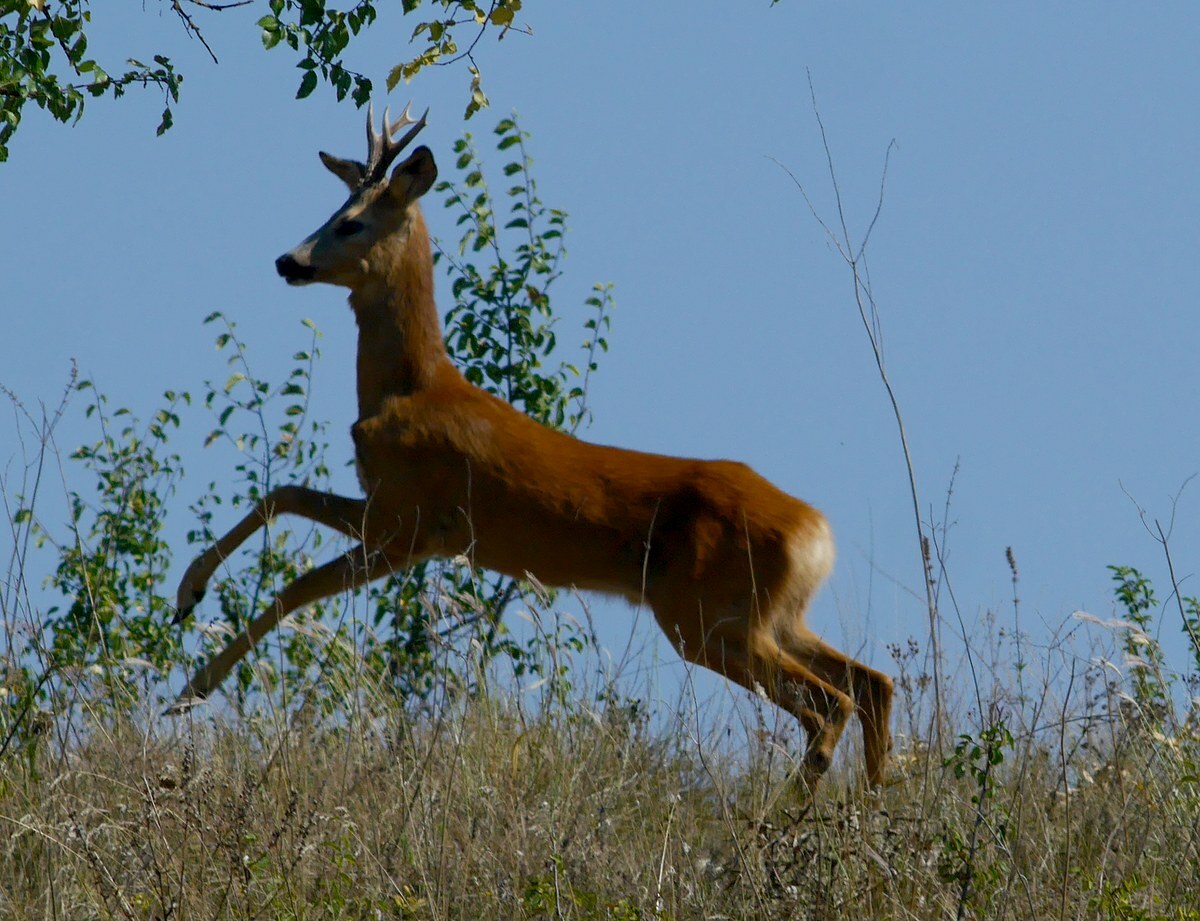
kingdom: Animalia
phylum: Chordata
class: Mammalia
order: Artiodactyla
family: Cervidae
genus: Capreolus
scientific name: Capreolus capreolus
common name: Western roe deer
